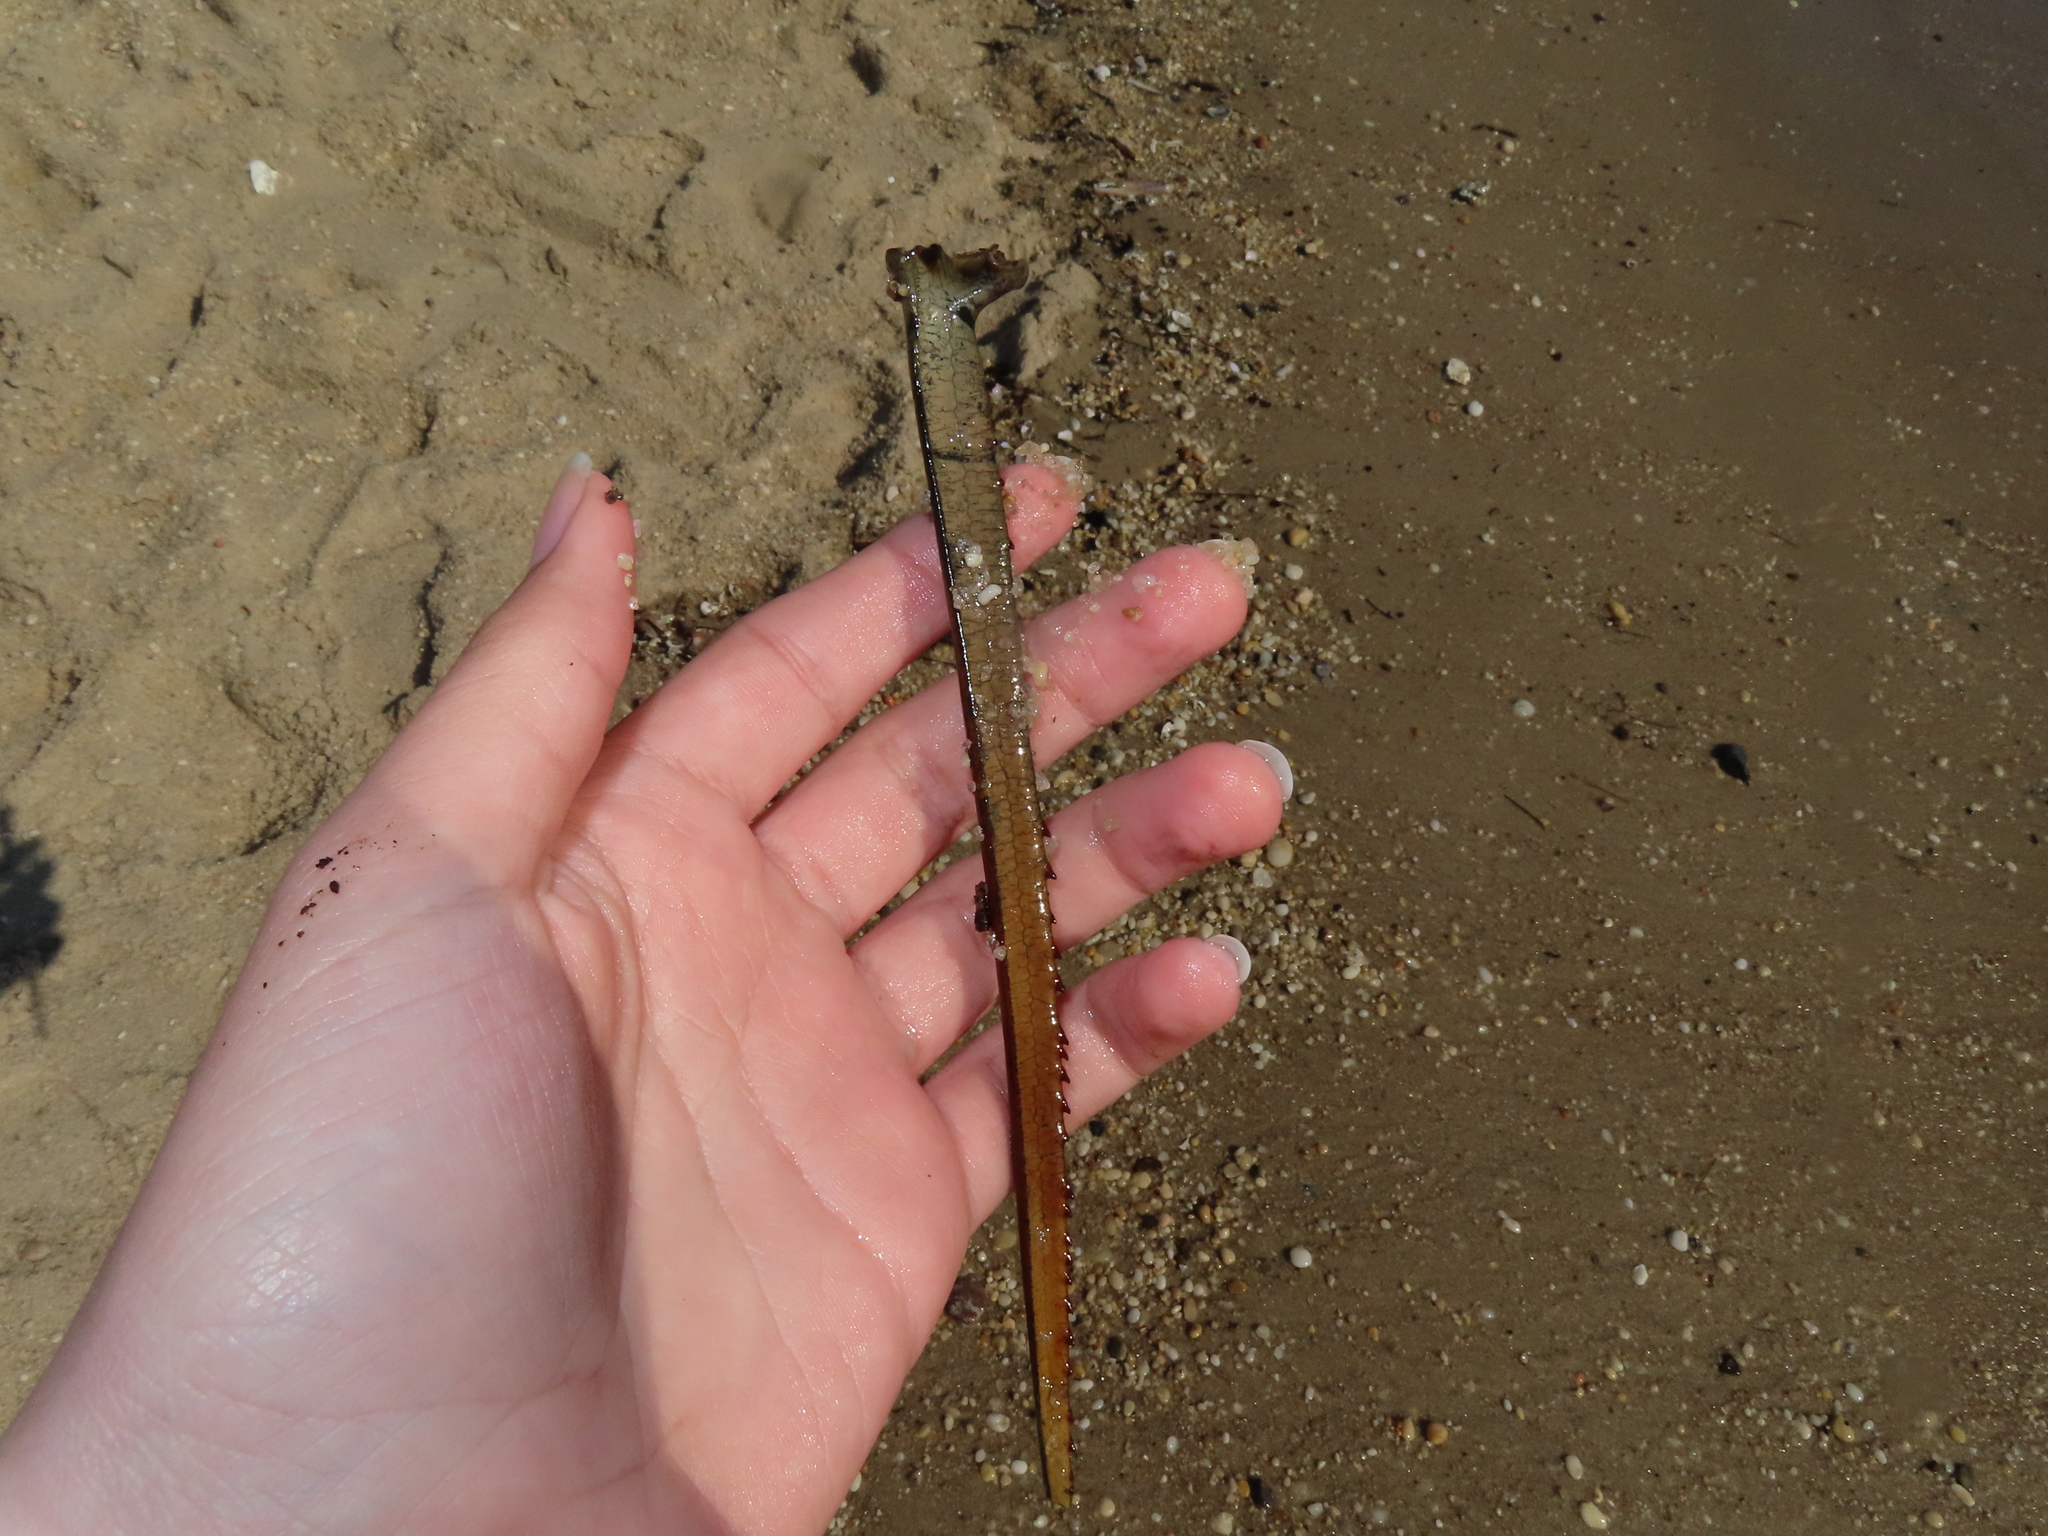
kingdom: Animalia
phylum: Arthropoda
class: Merostomata
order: Xiphosurida
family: Limulidae
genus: Limulus
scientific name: Limulus polyphemus
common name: Horseshoe crab
